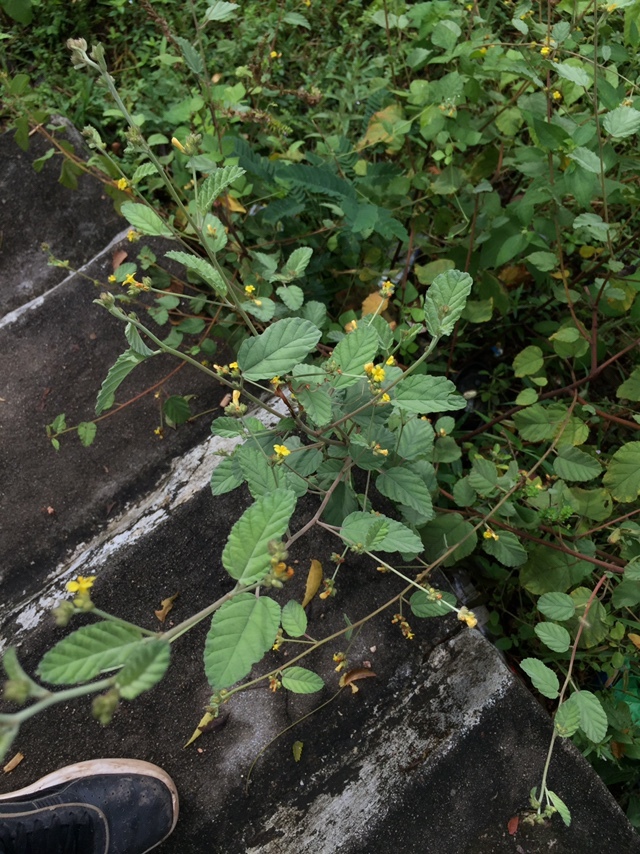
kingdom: Plantae
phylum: Tracheophyta
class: Magnoliopsida
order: Malvales
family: Malvaceae
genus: Waltheria
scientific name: Waltheria indica
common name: Leather-coat
